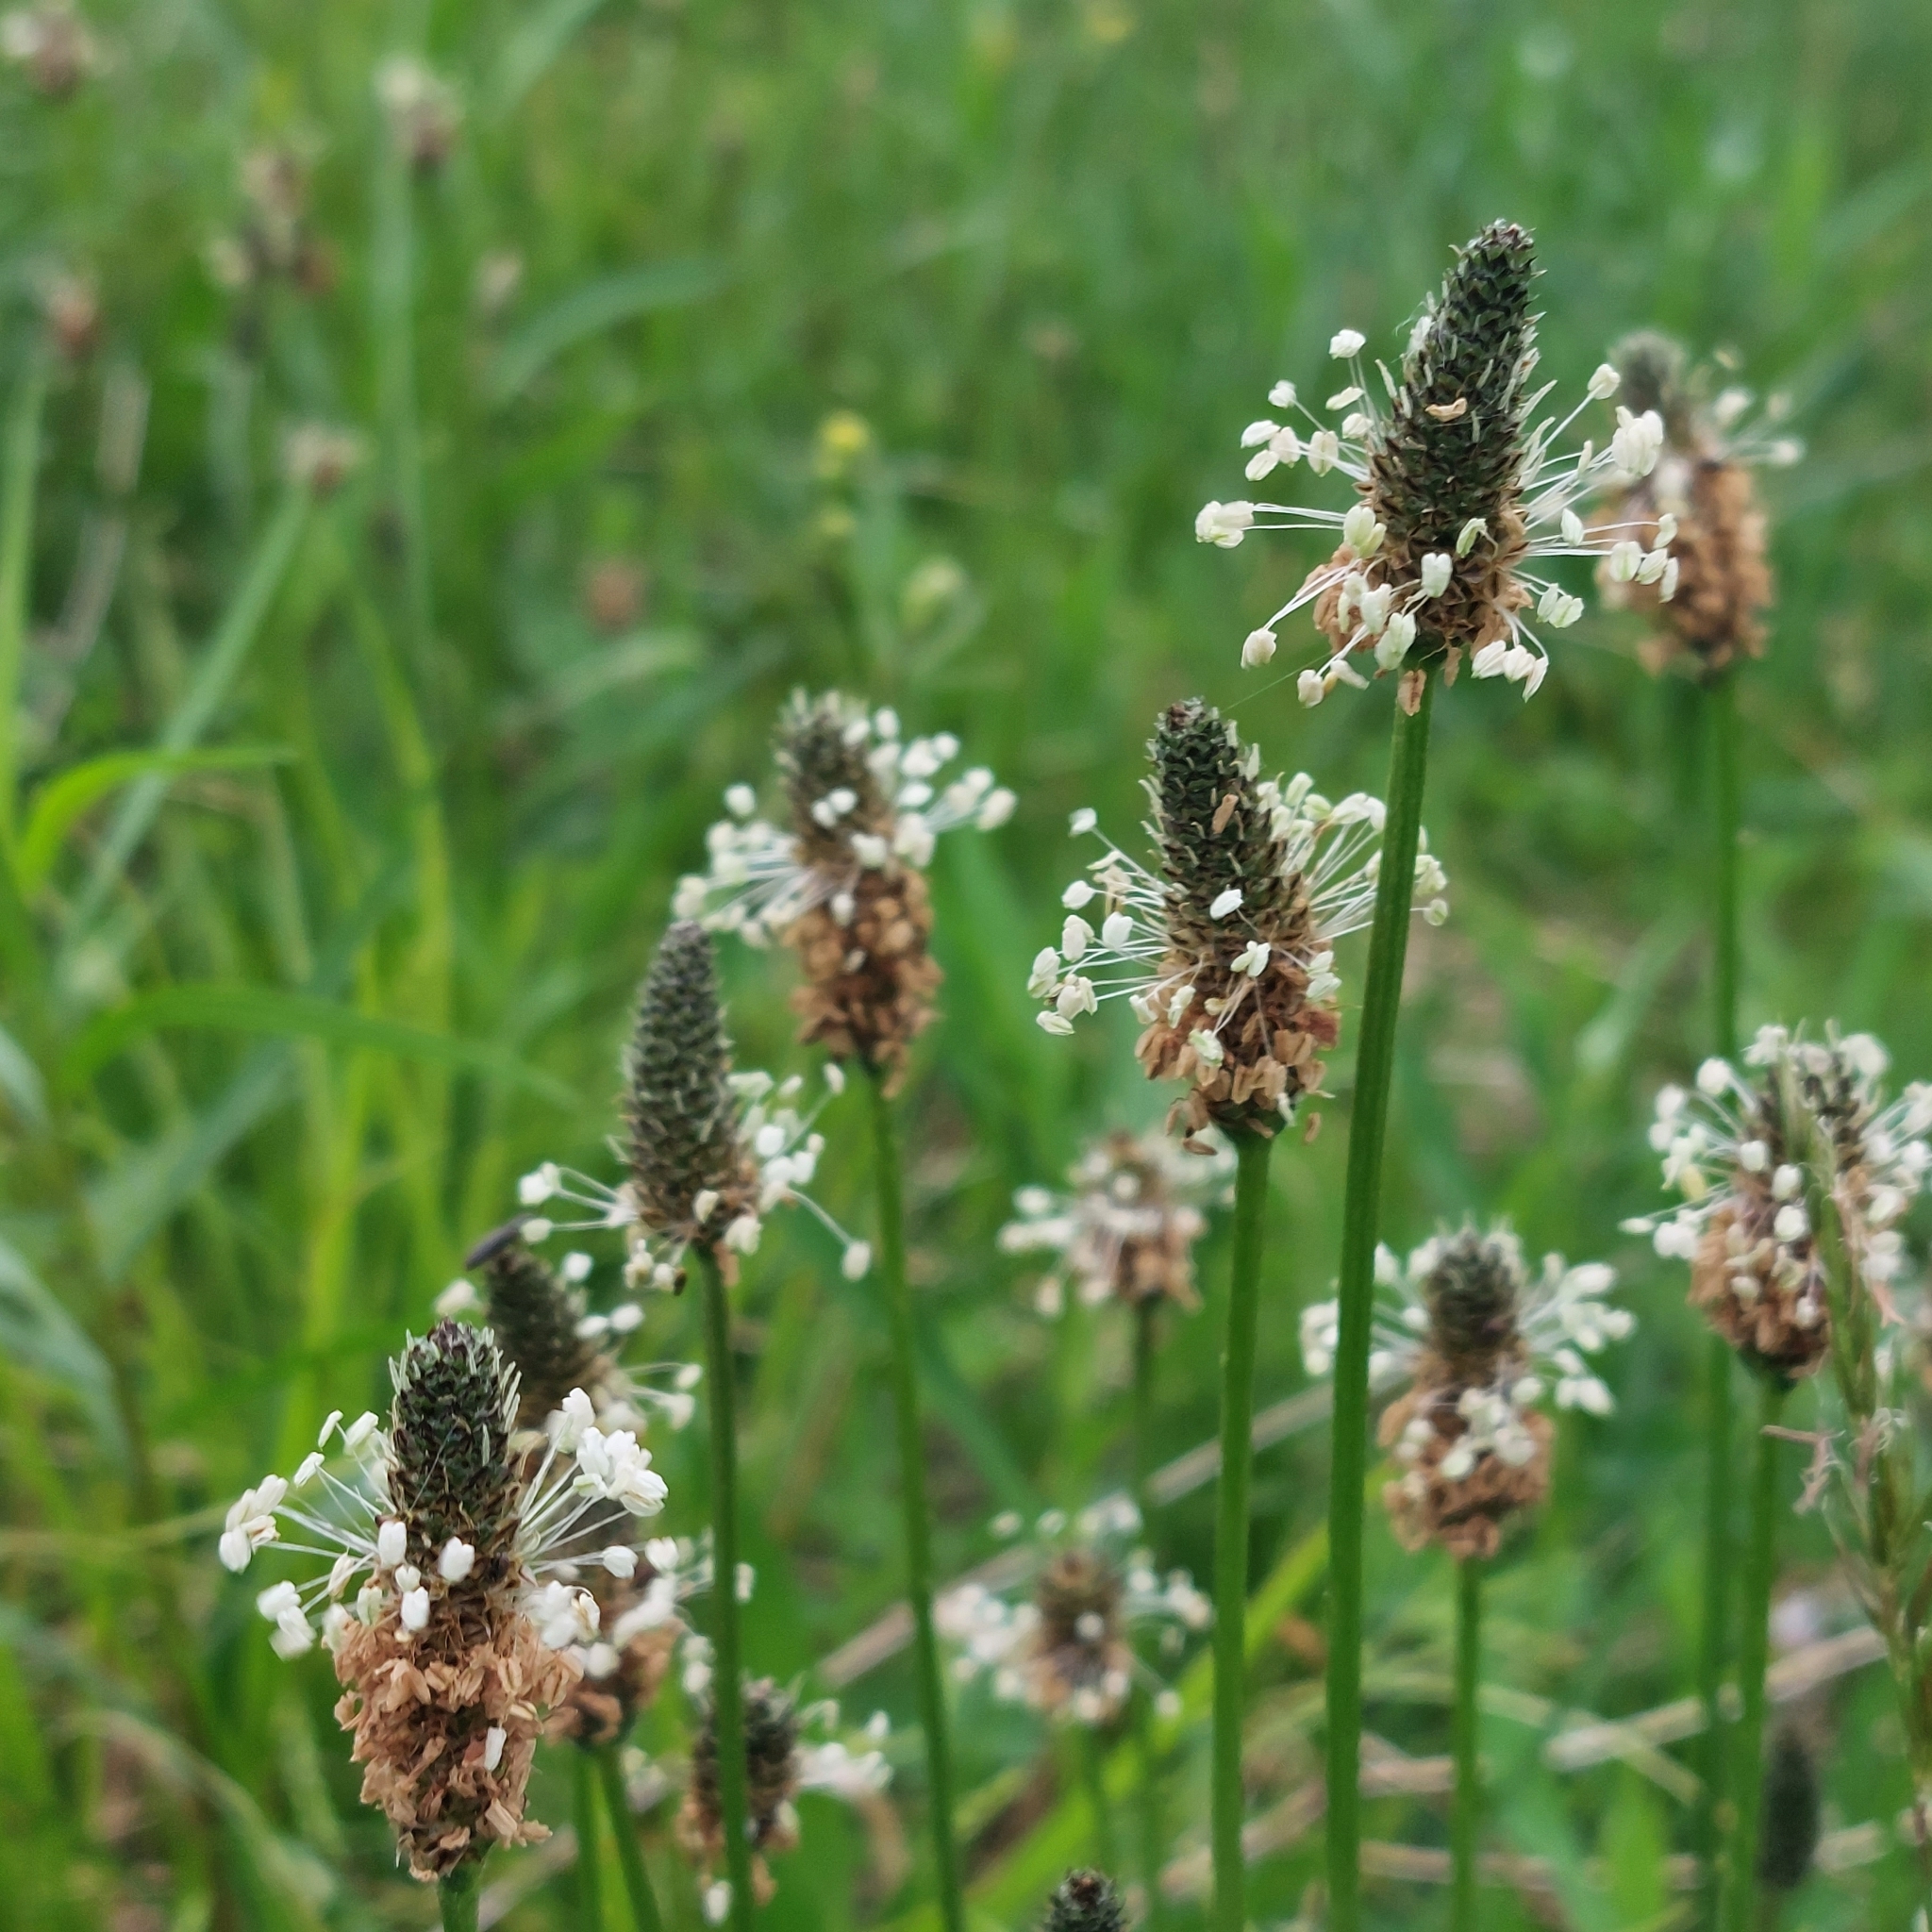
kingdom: Plantae
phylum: Tracheophyta
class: Magnoliopsida
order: Lamiales
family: Plantaginaceae
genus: Plantago
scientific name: Plantago lanceolata
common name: Ribwort plantain
